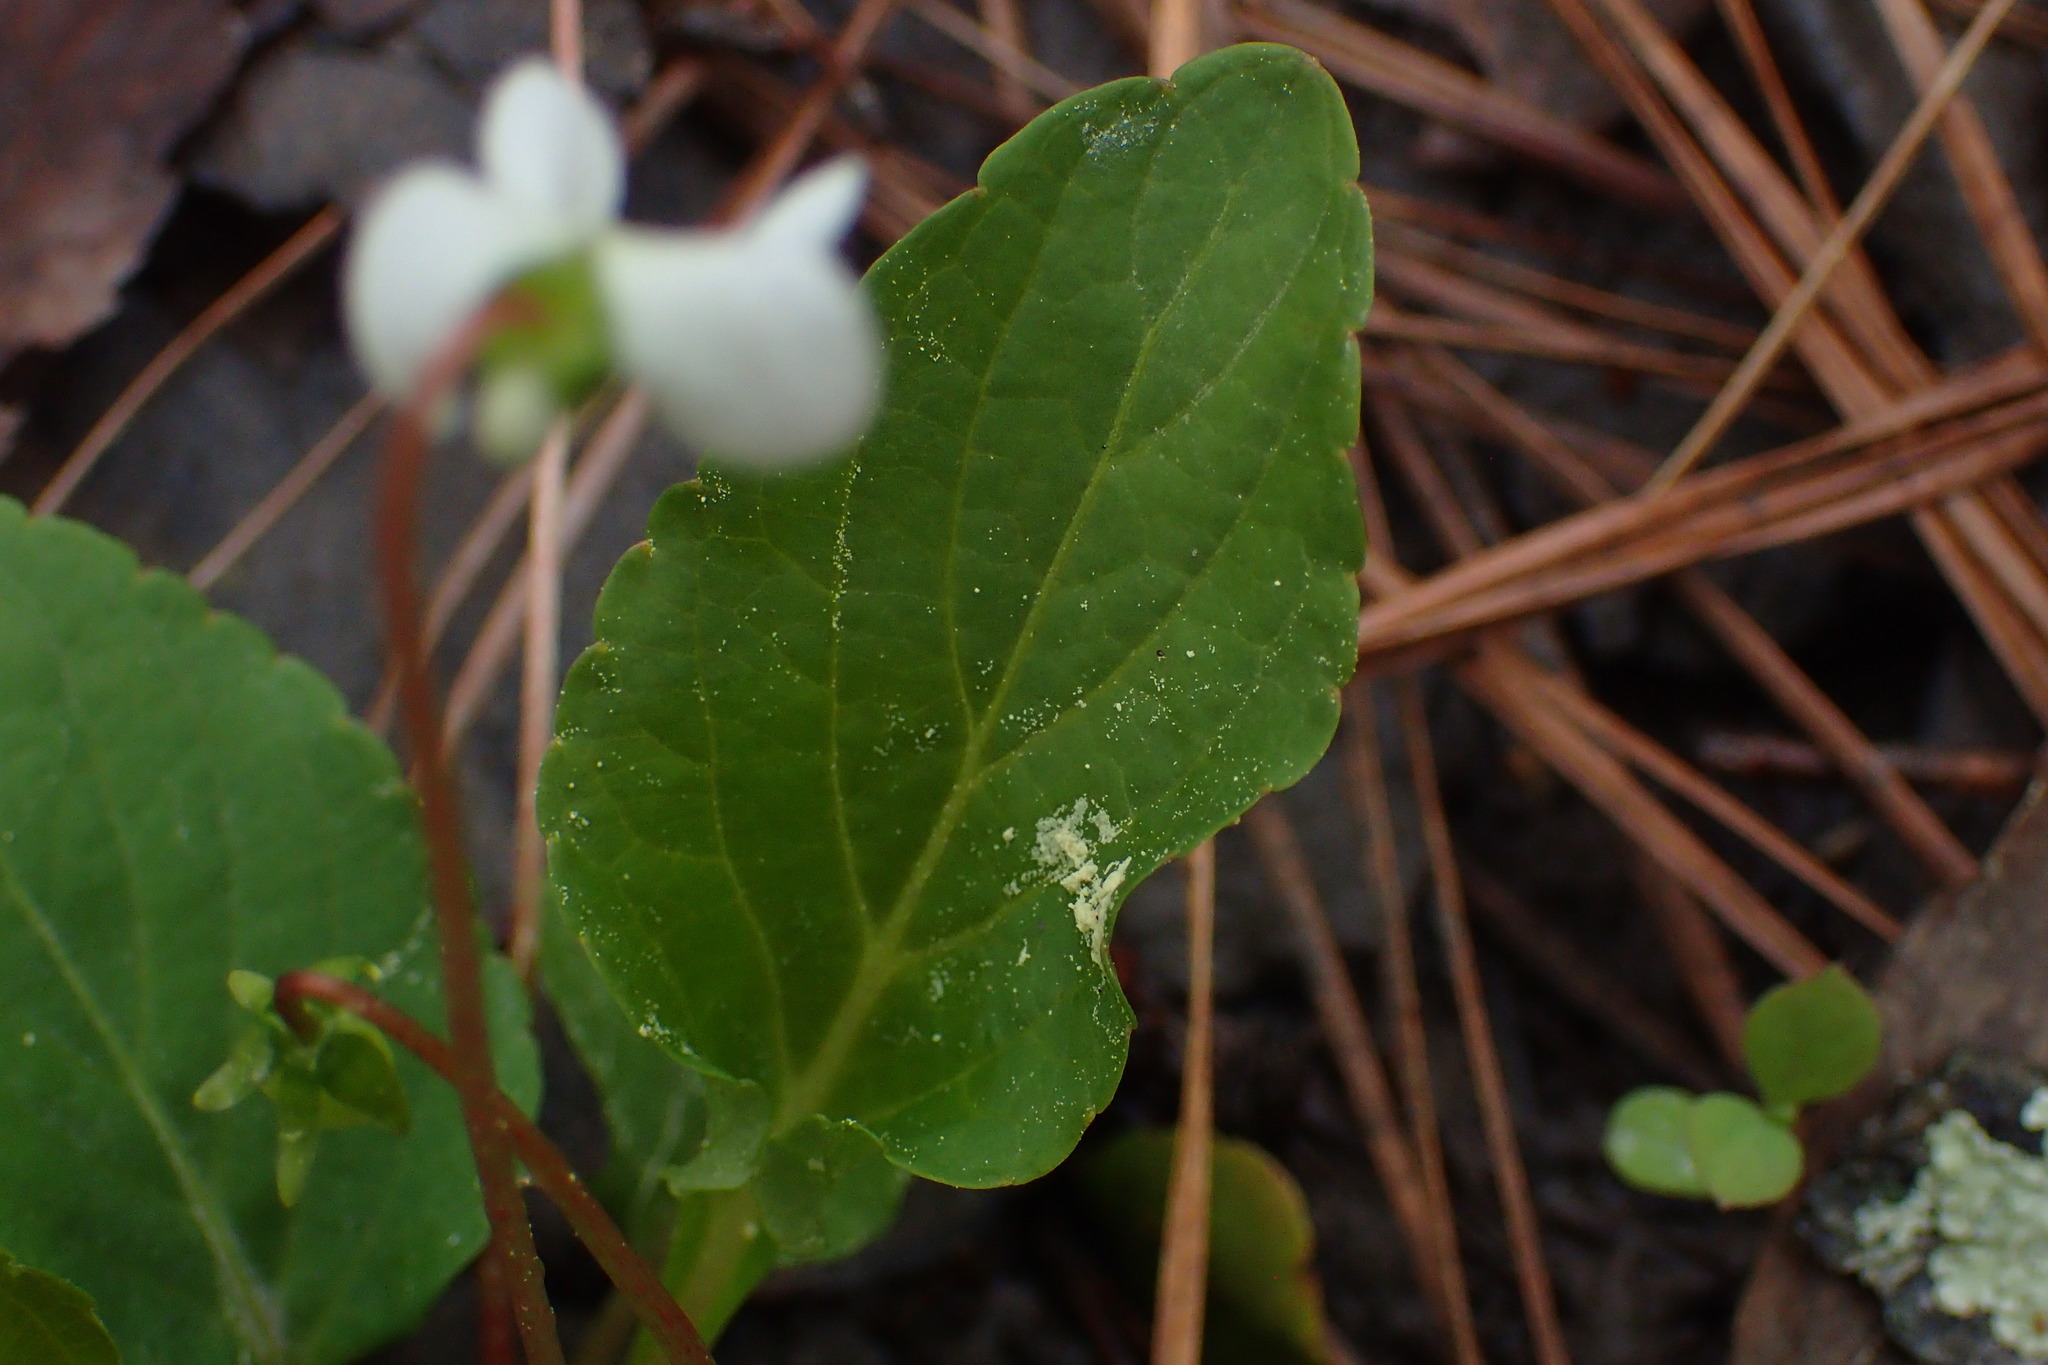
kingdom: Plantae
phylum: Tracheophyta
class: Magnoliopsida
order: Malpighiales
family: Violaceae
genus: Viola
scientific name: Viola primulifolia
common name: Primrose-leaf violet
